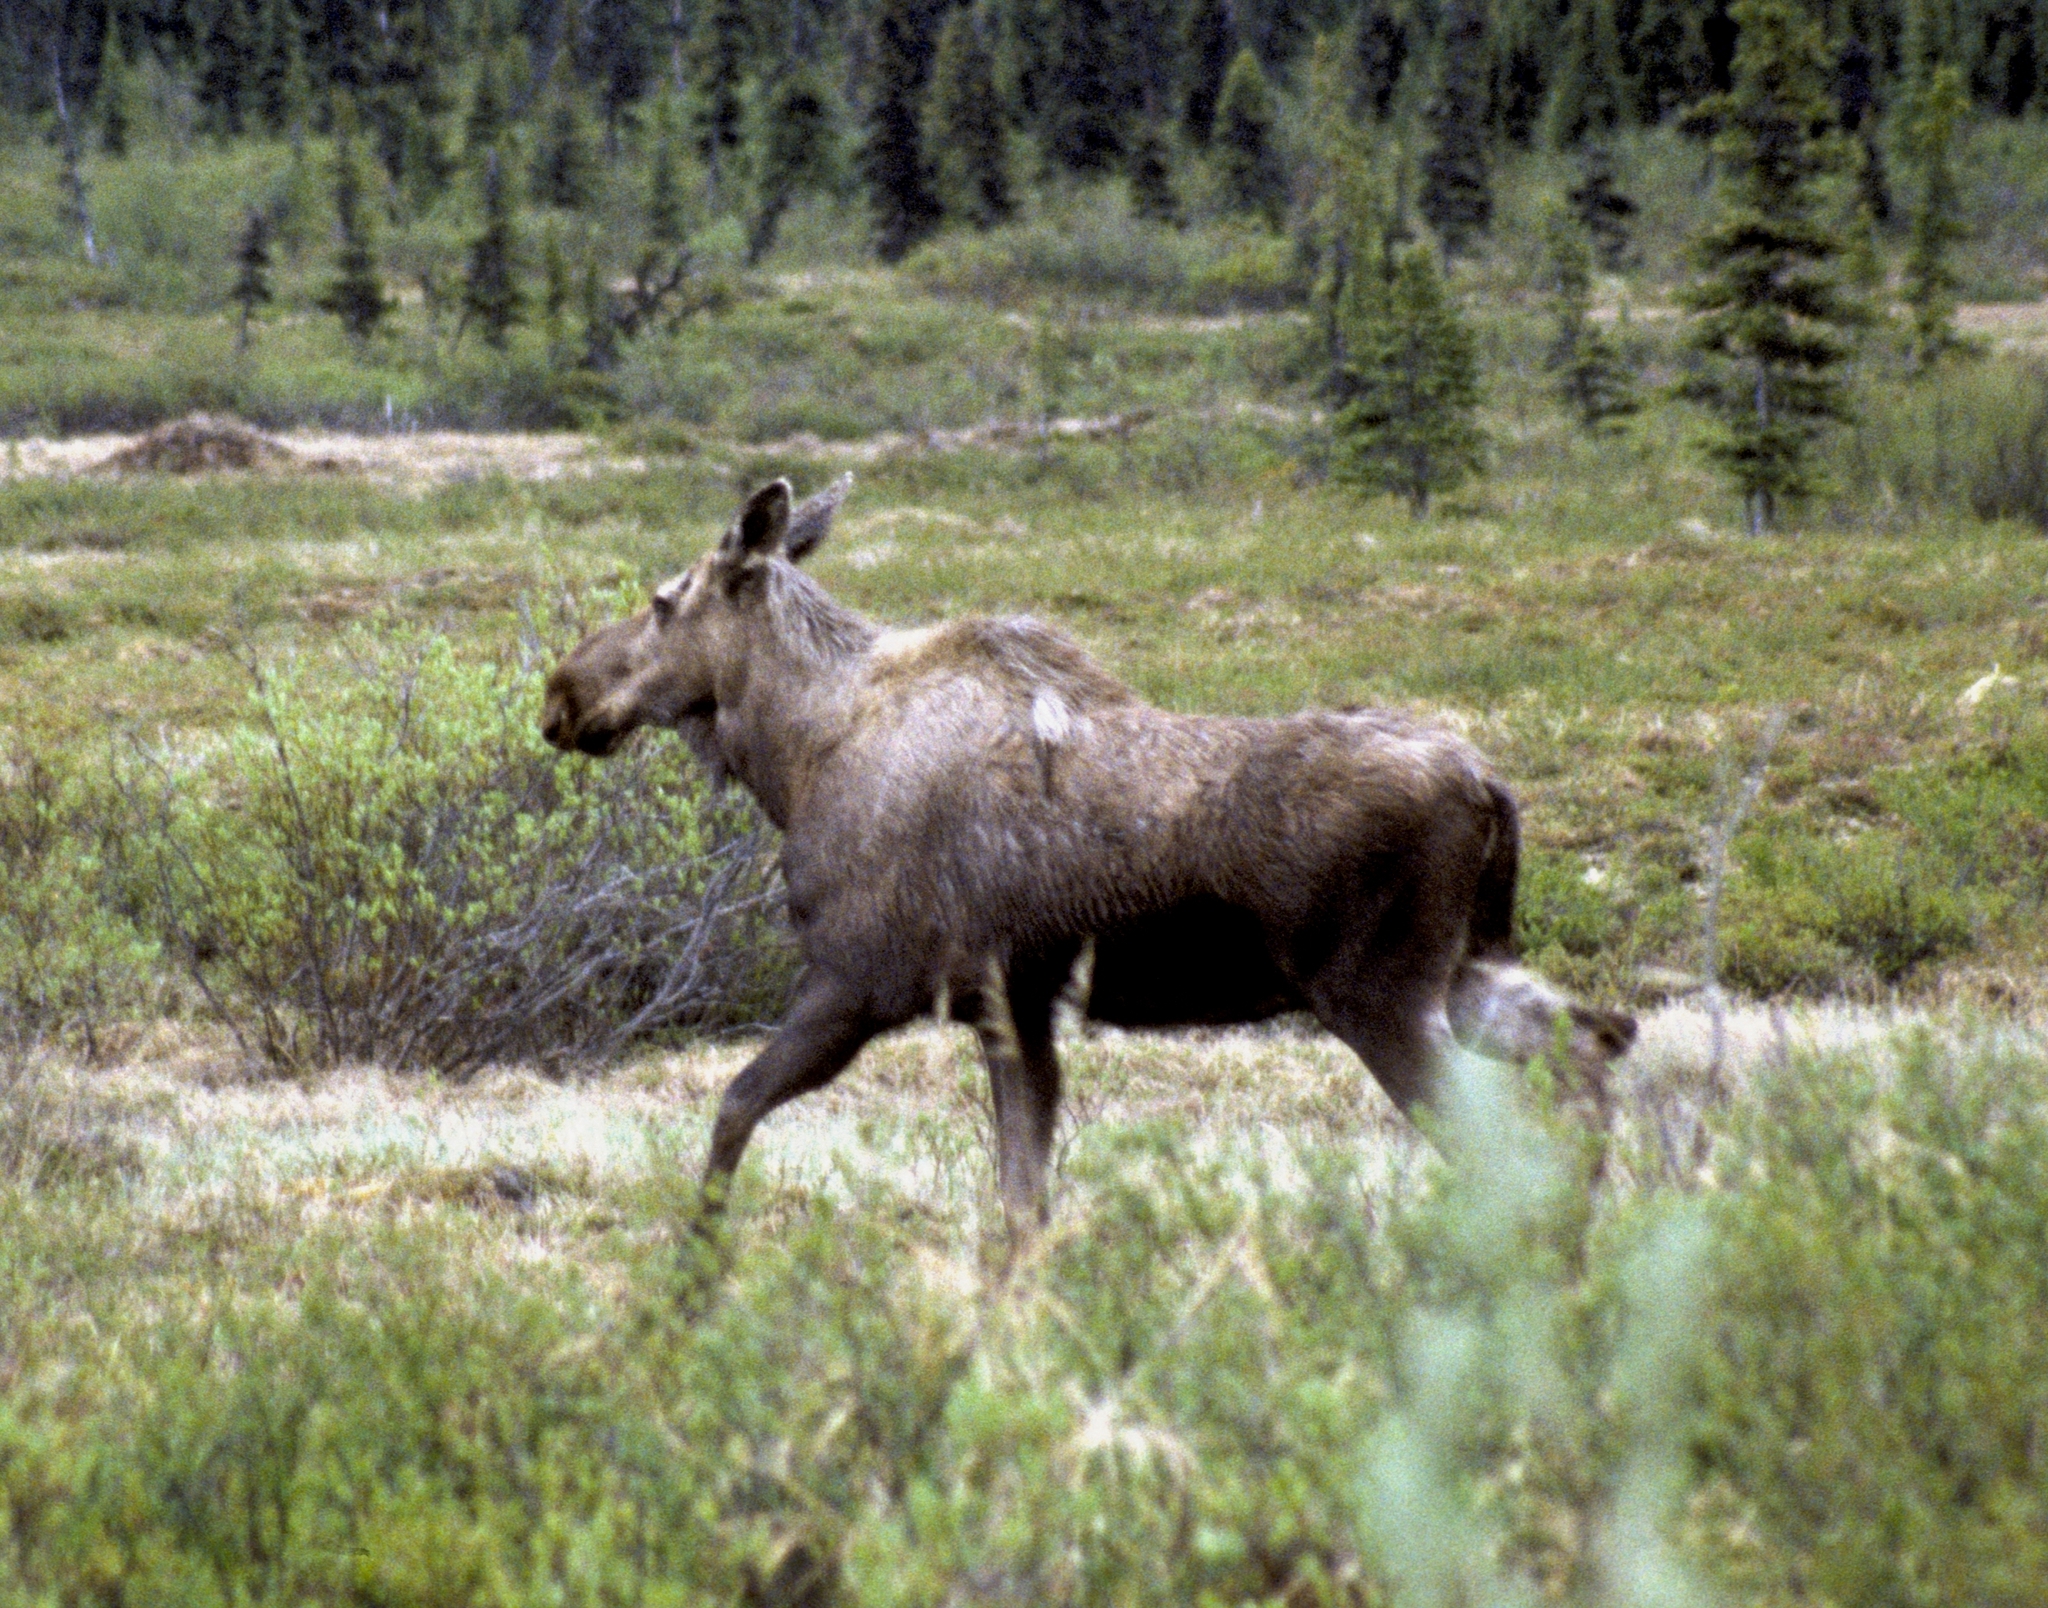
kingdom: Animalia
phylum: Chordata
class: Mammalia
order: Artiodactyla
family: Cervidae
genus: Alces
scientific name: Alces alces
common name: Moose
